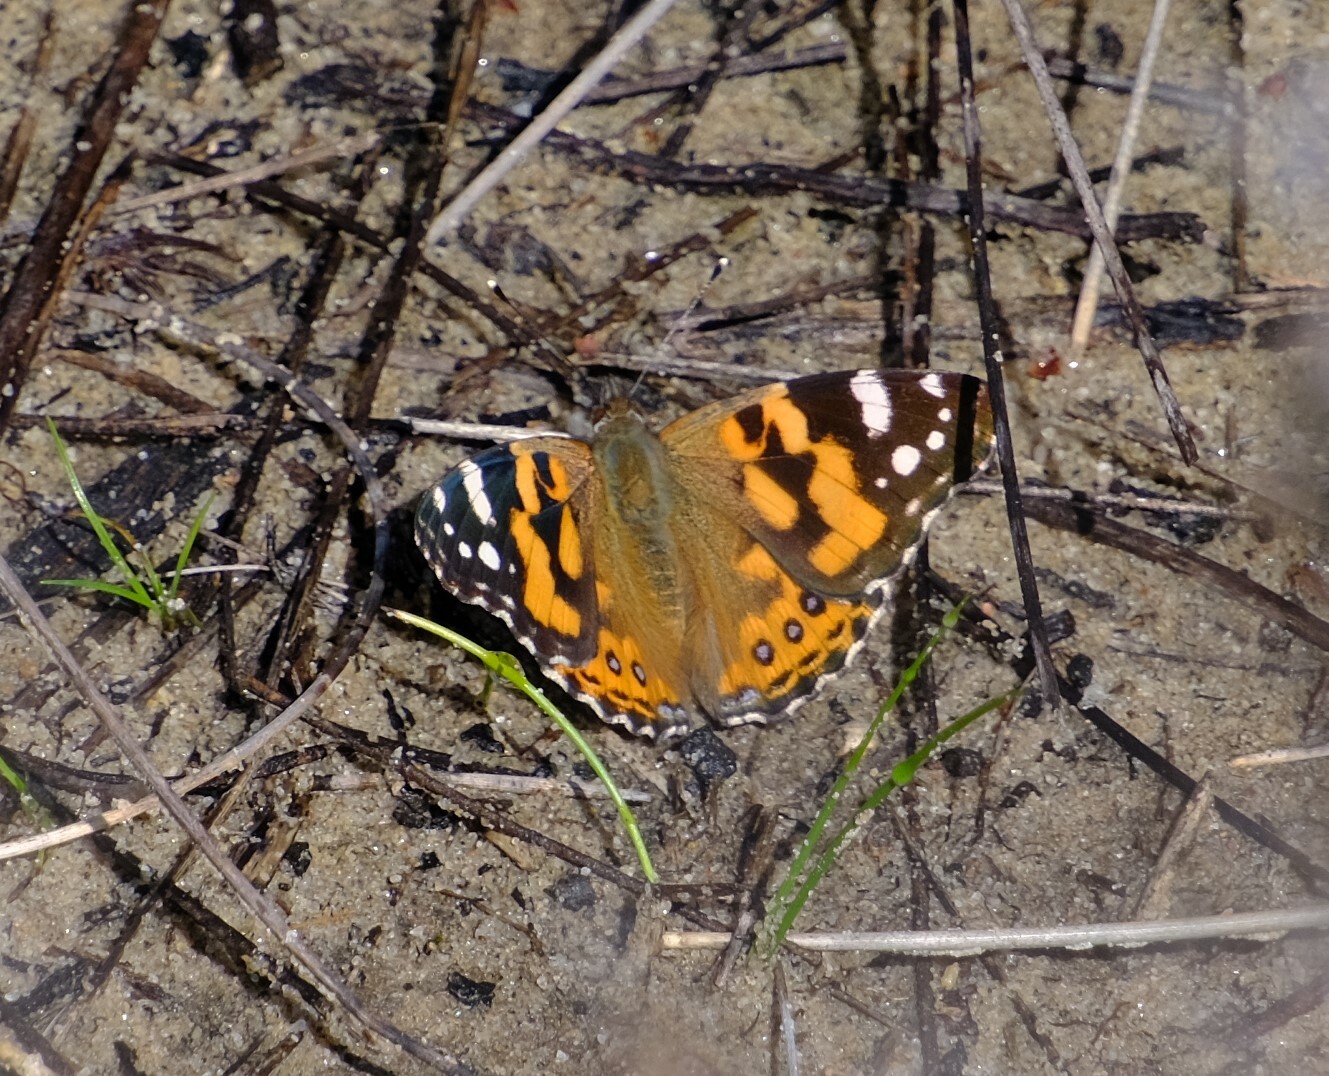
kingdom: Animalia
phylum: Arthropoda
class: Insecta
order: Lepidoptera
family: Nymphalidae
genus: Vanessa
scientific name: Vanessa kershawi
